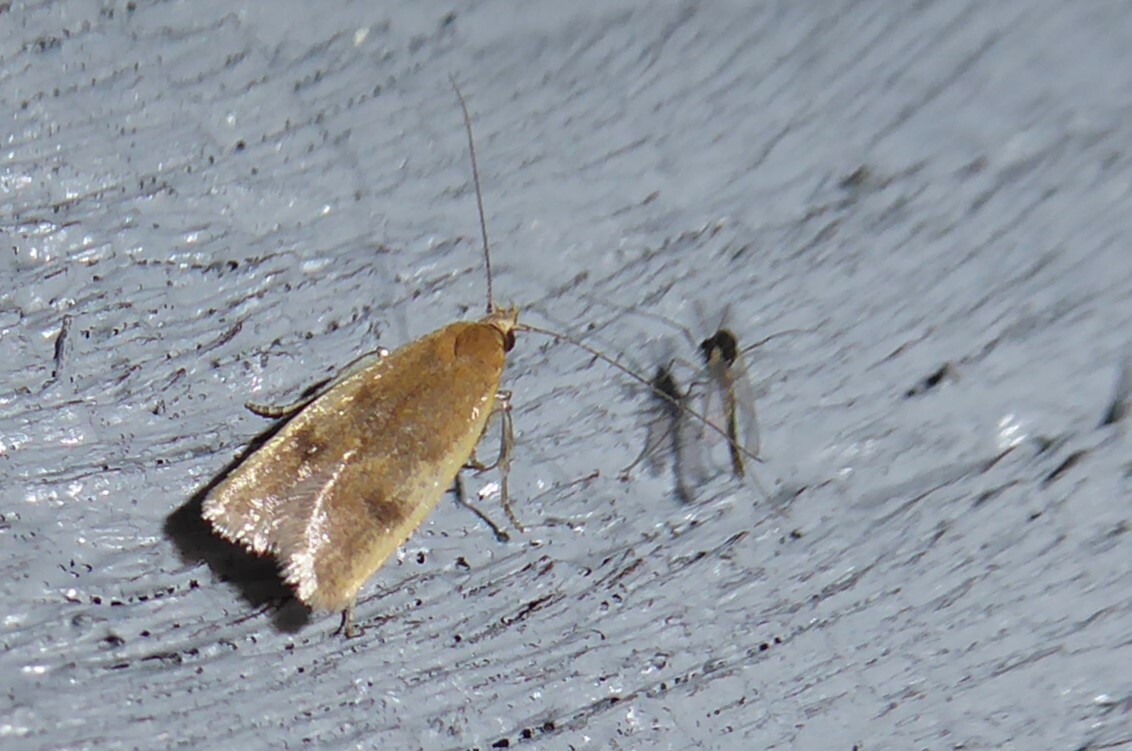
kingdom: Animalia
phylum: Arthropoda
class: Insecta
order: Lepidoptera
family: Oecophoridae
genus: Gymnobathra
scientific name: Gymnobathra parca
